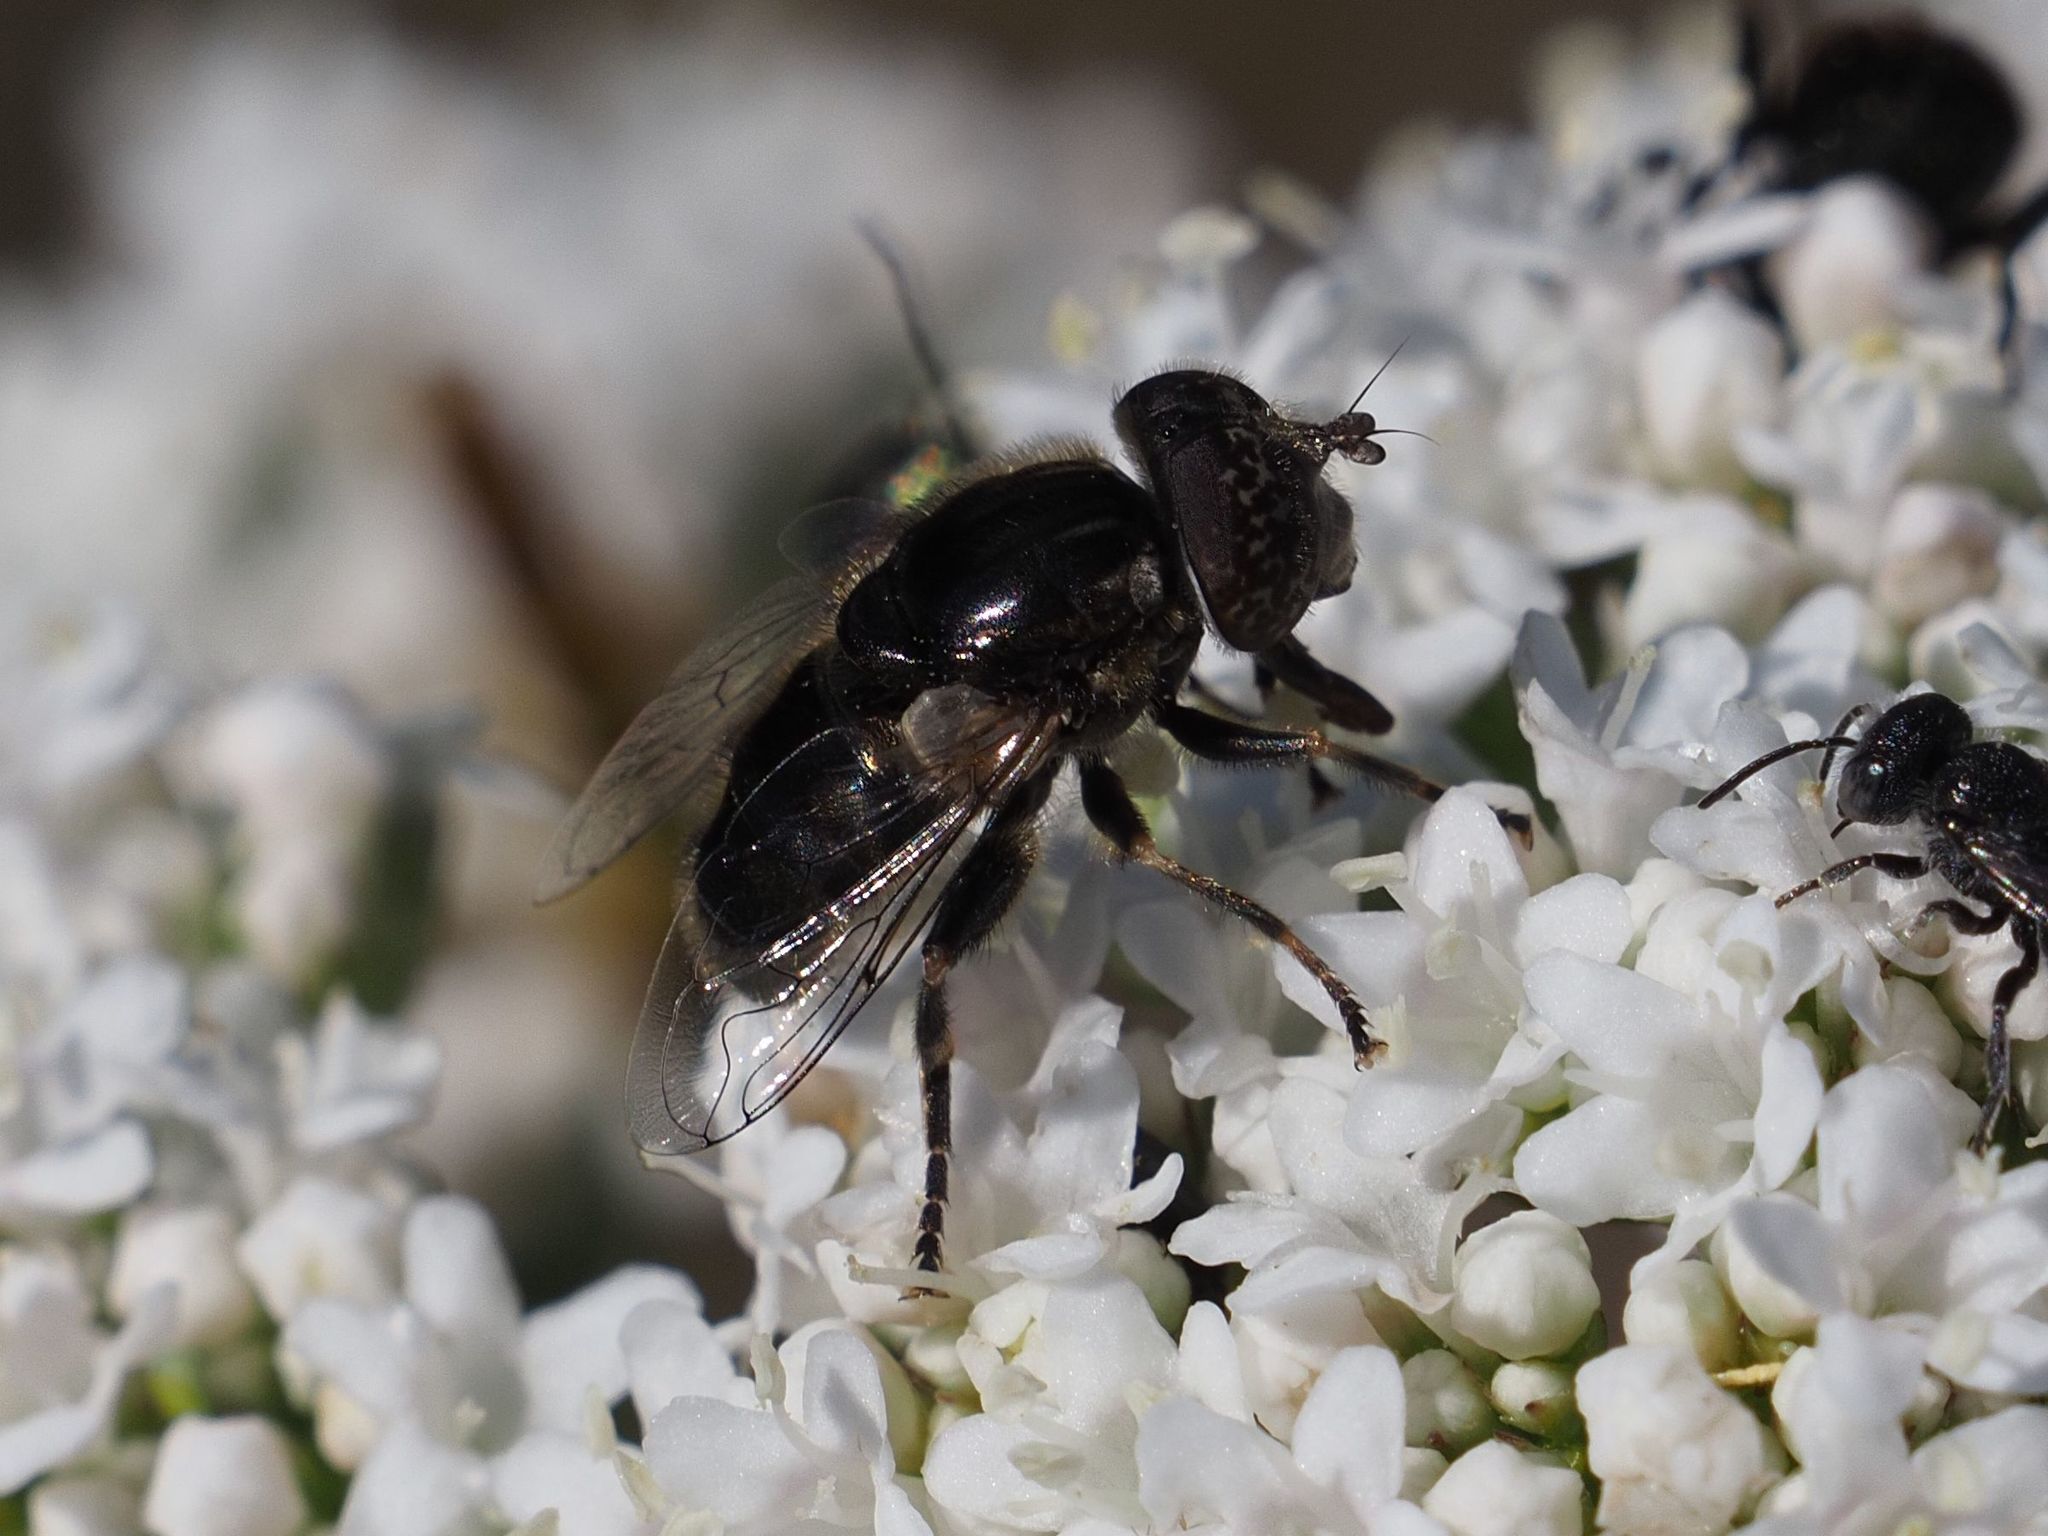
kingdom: Animalia
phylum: Arthropoda
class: Insecta
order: Diptera
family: Syrphidae
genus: Eristalinus
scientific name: Eristalinus sepulchralis
